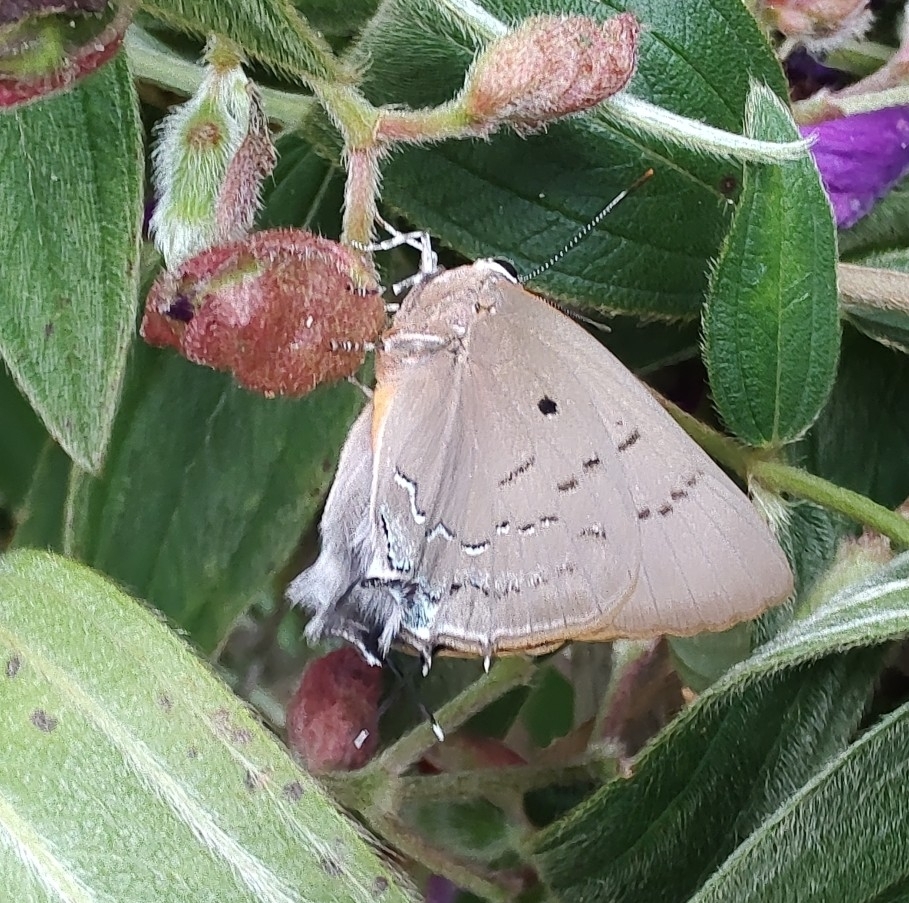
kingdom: Animalia
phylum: Arthropoda
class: Insecta
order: Lepidoptera
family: Lycaenidae
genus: Thecla
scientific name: Thecla thyrea
